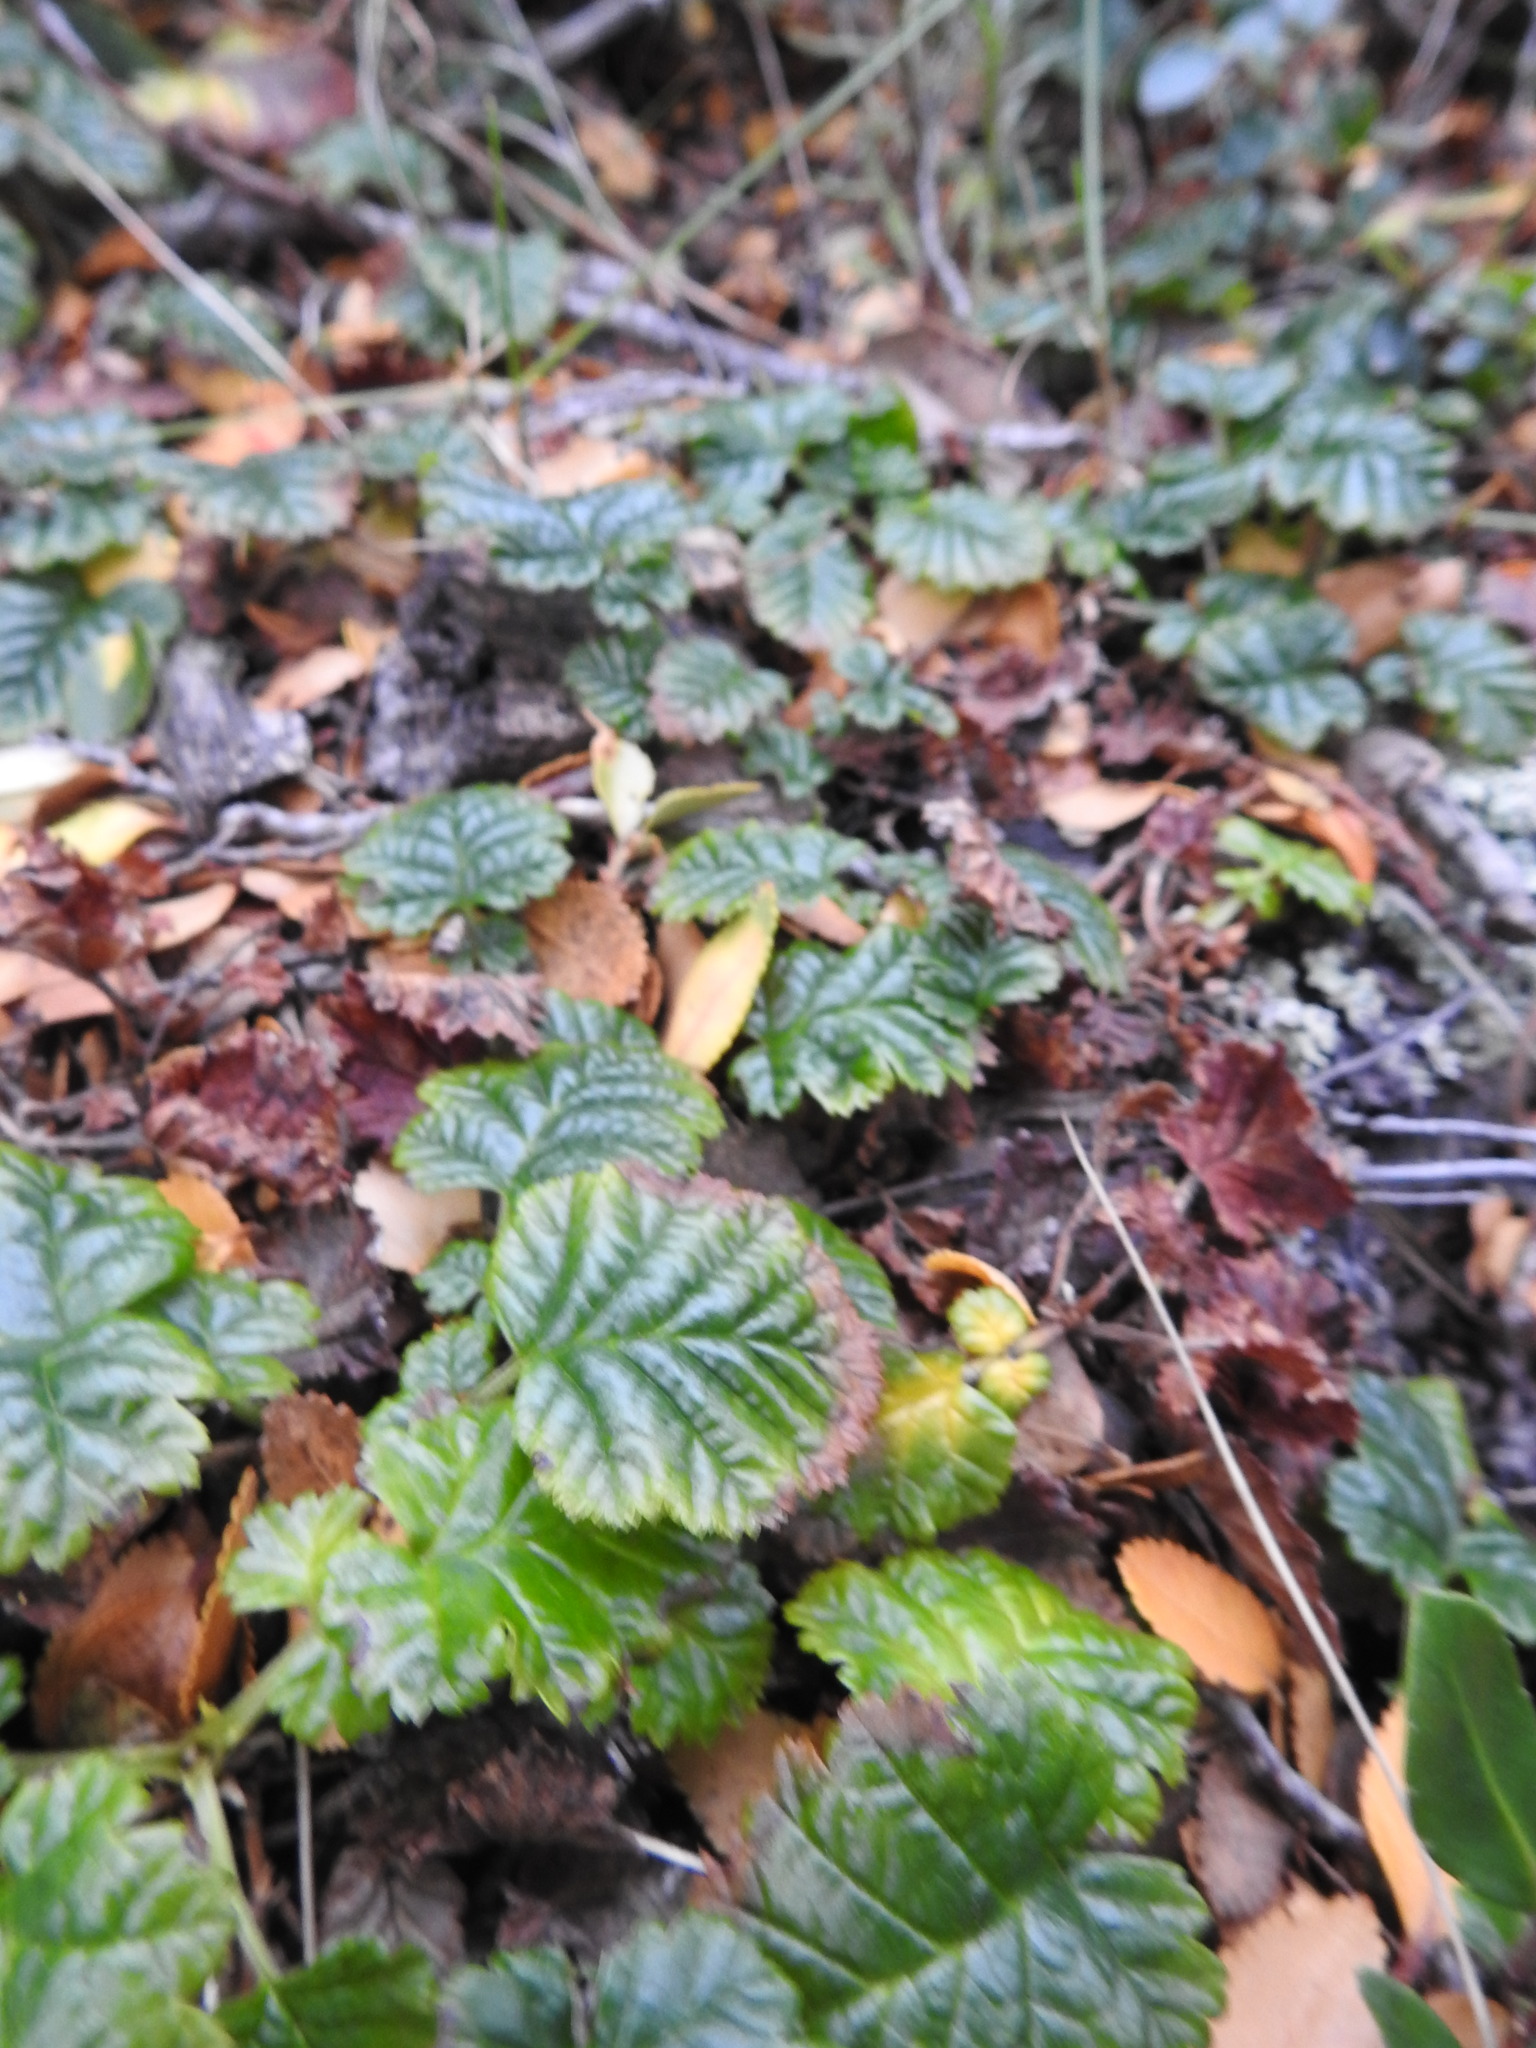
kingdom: Plantae
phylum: Tracheophyta
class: Magnoliopsida
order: Rosales
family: Rosaceae
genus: Rubus
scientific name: Rubus geoides
